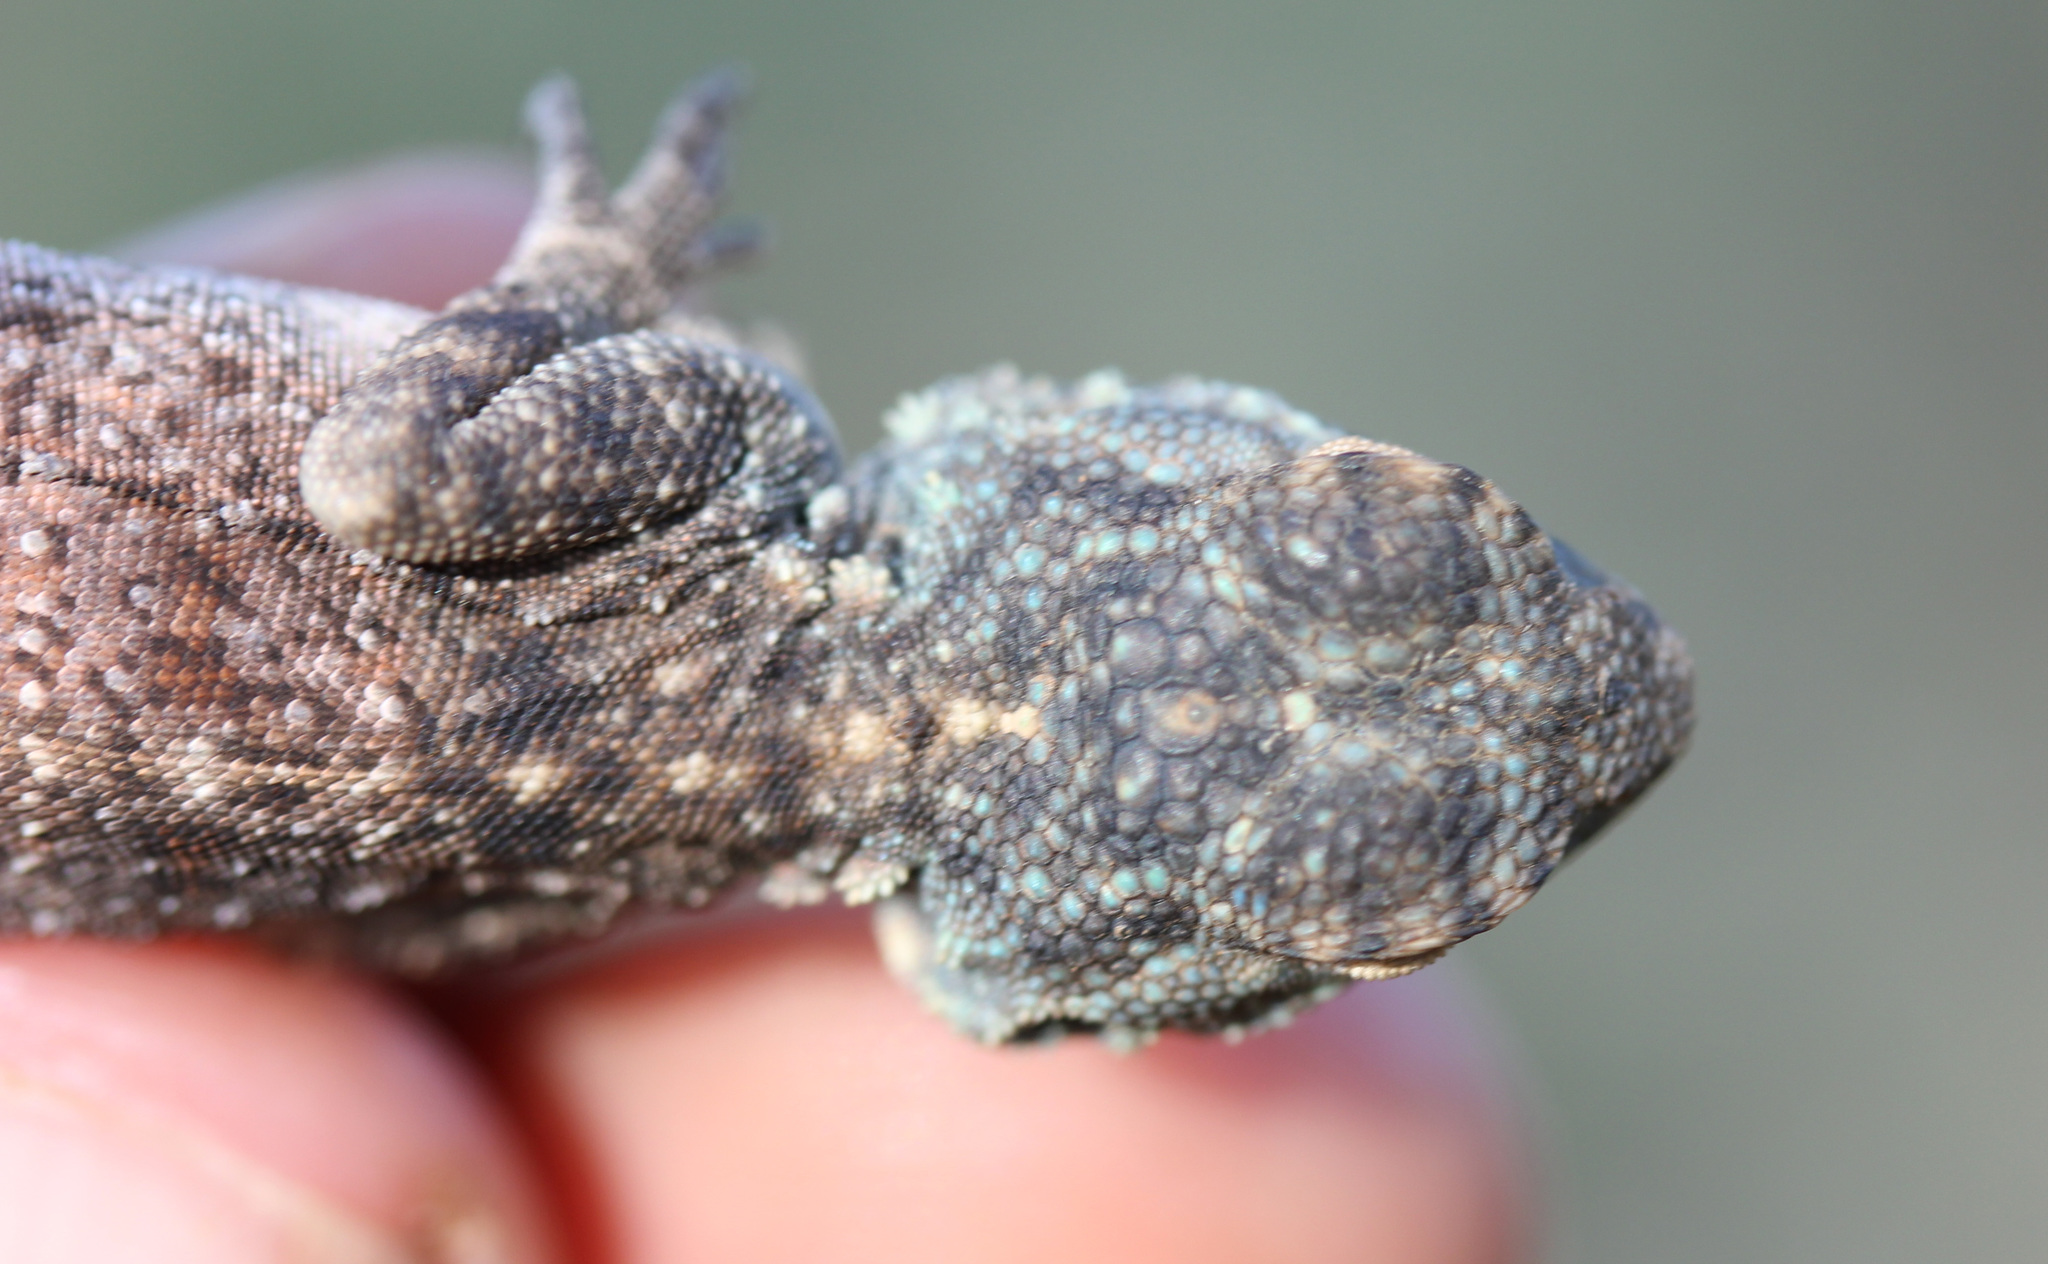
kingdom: Animalia
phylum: Chordata
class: Squamata
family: Agamidae
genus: Agama
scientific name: Agama atra
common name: Southern african rock agama
